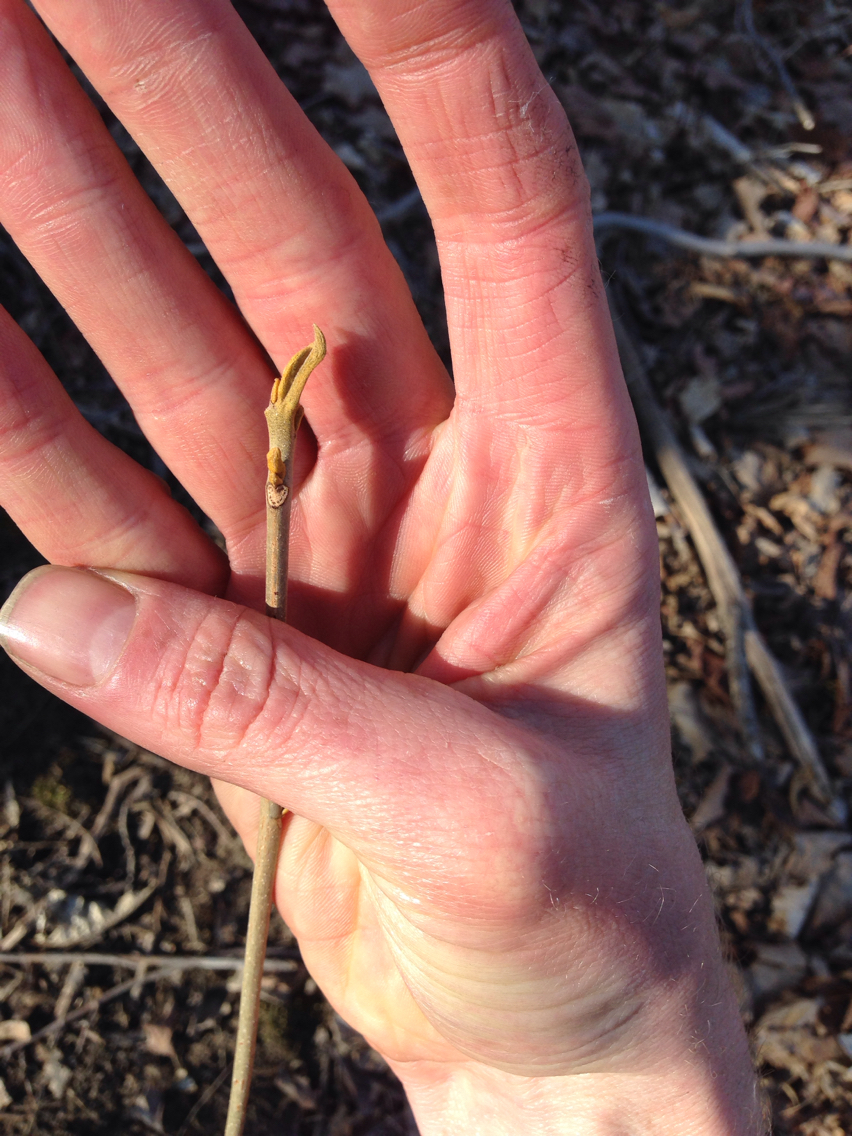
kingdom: Plantae
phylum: Tracheophyta
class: Magnoliopsida
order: Fagales
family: Juglandaceae
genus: Carya
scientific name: Carya cordiformis
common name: Bitternut hickory
